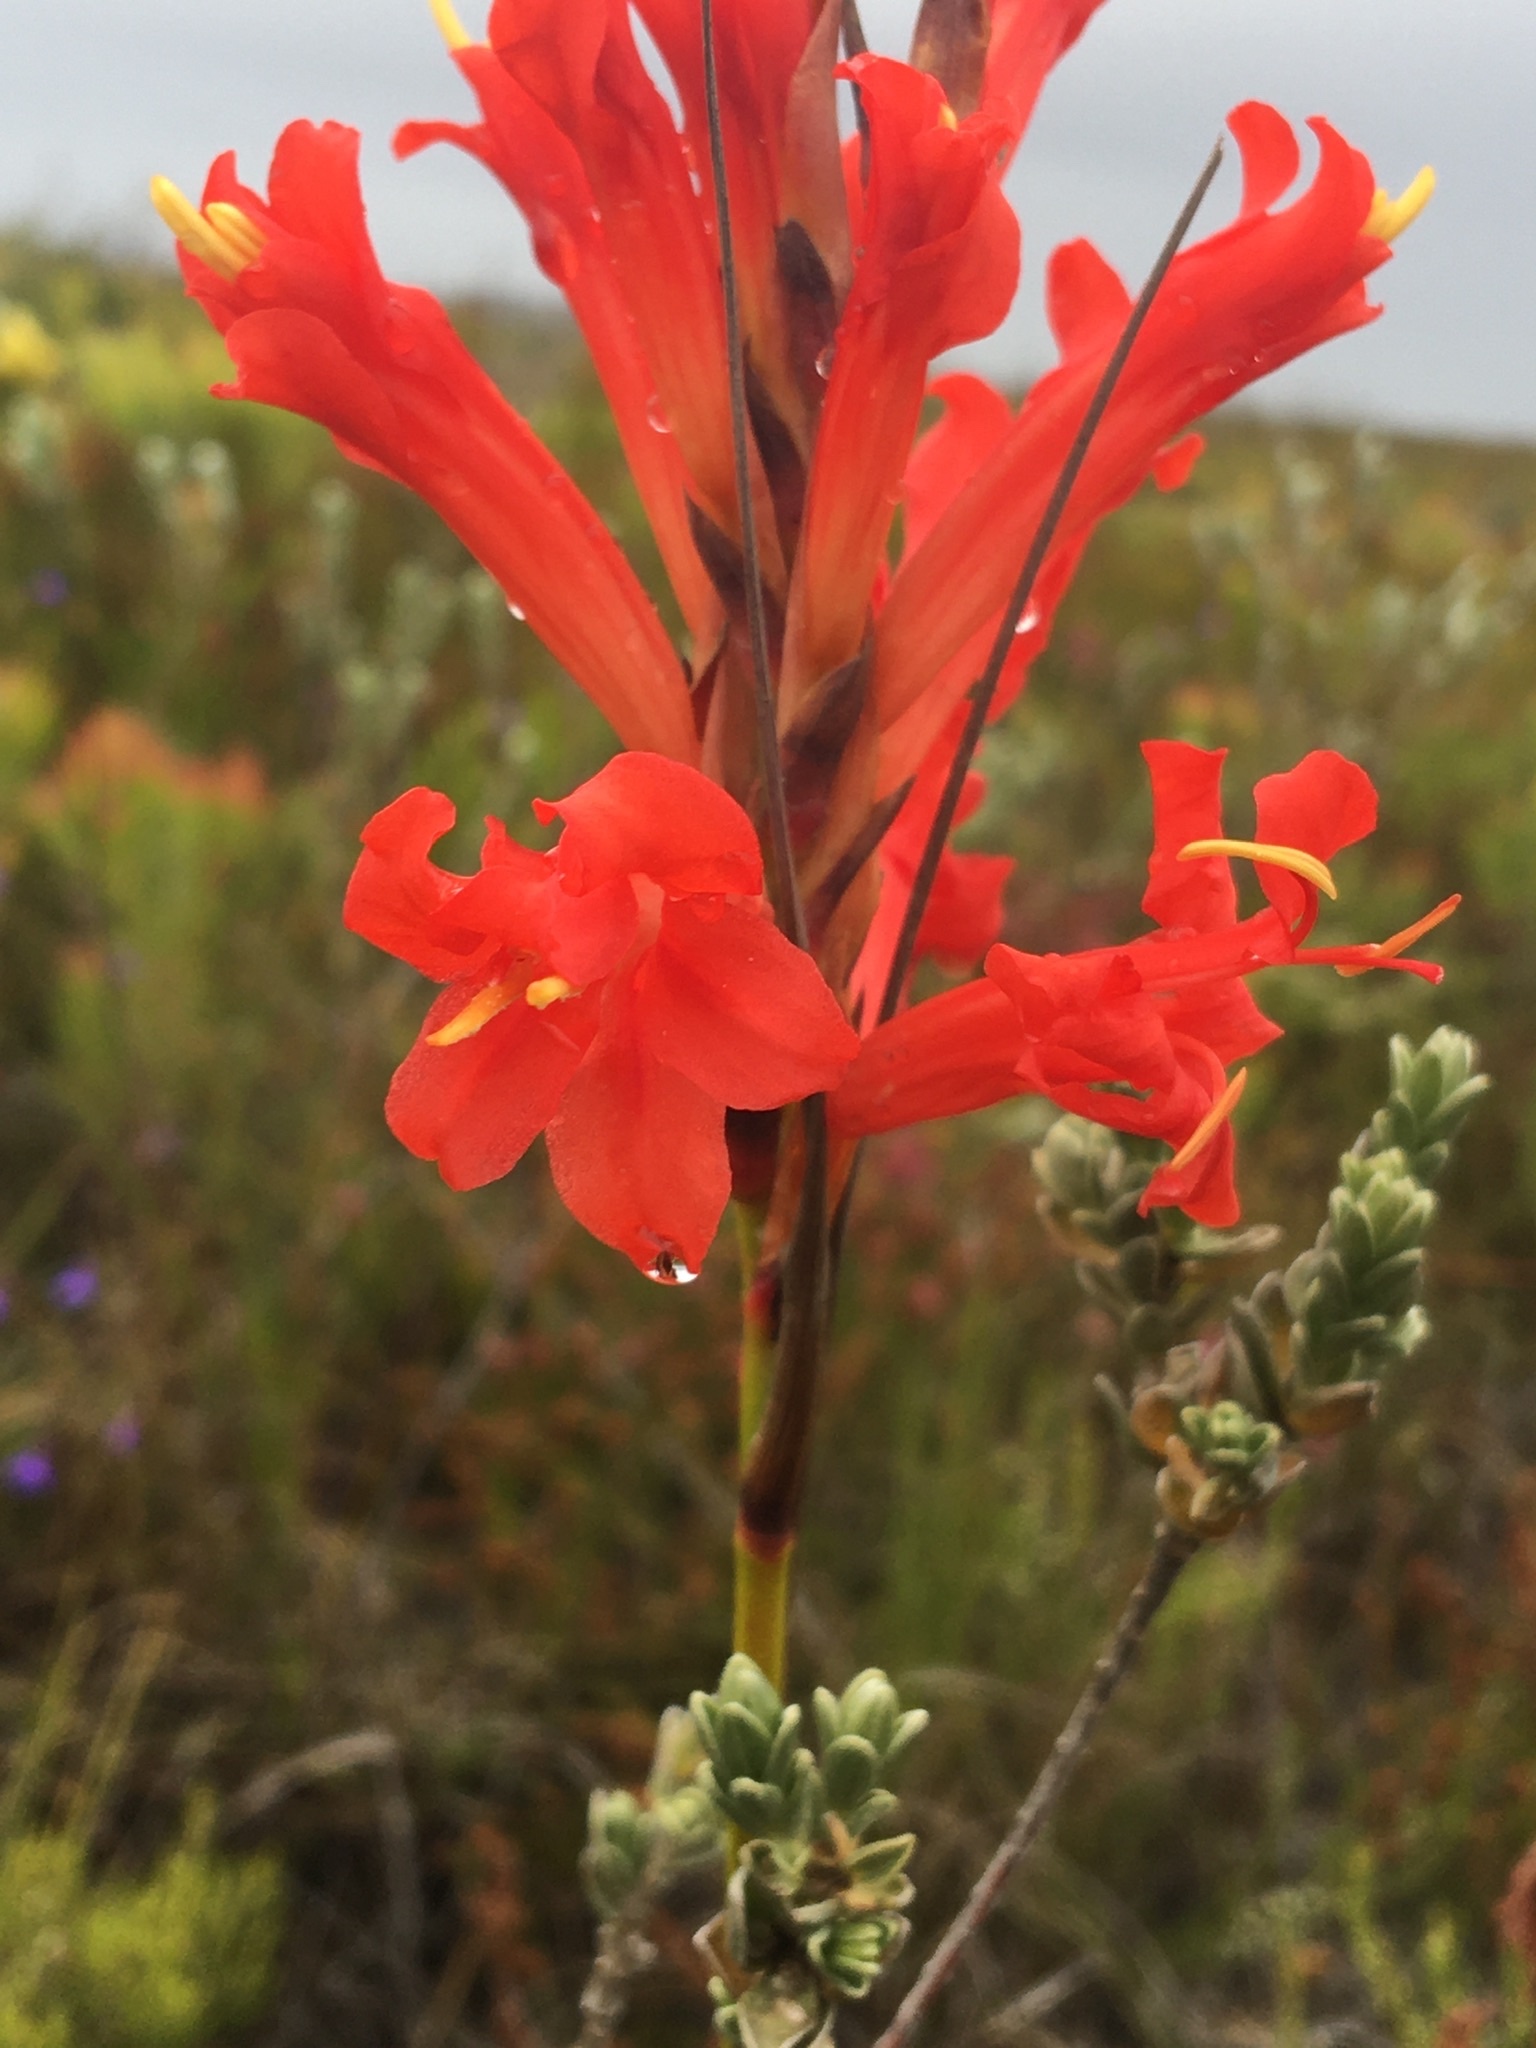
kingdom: Plantae
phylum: Tracheophyta
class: Liliopsida
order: Asparagales
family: Iridaceae
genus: Tritoniopsis
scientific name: Tritoniopsis triticea
